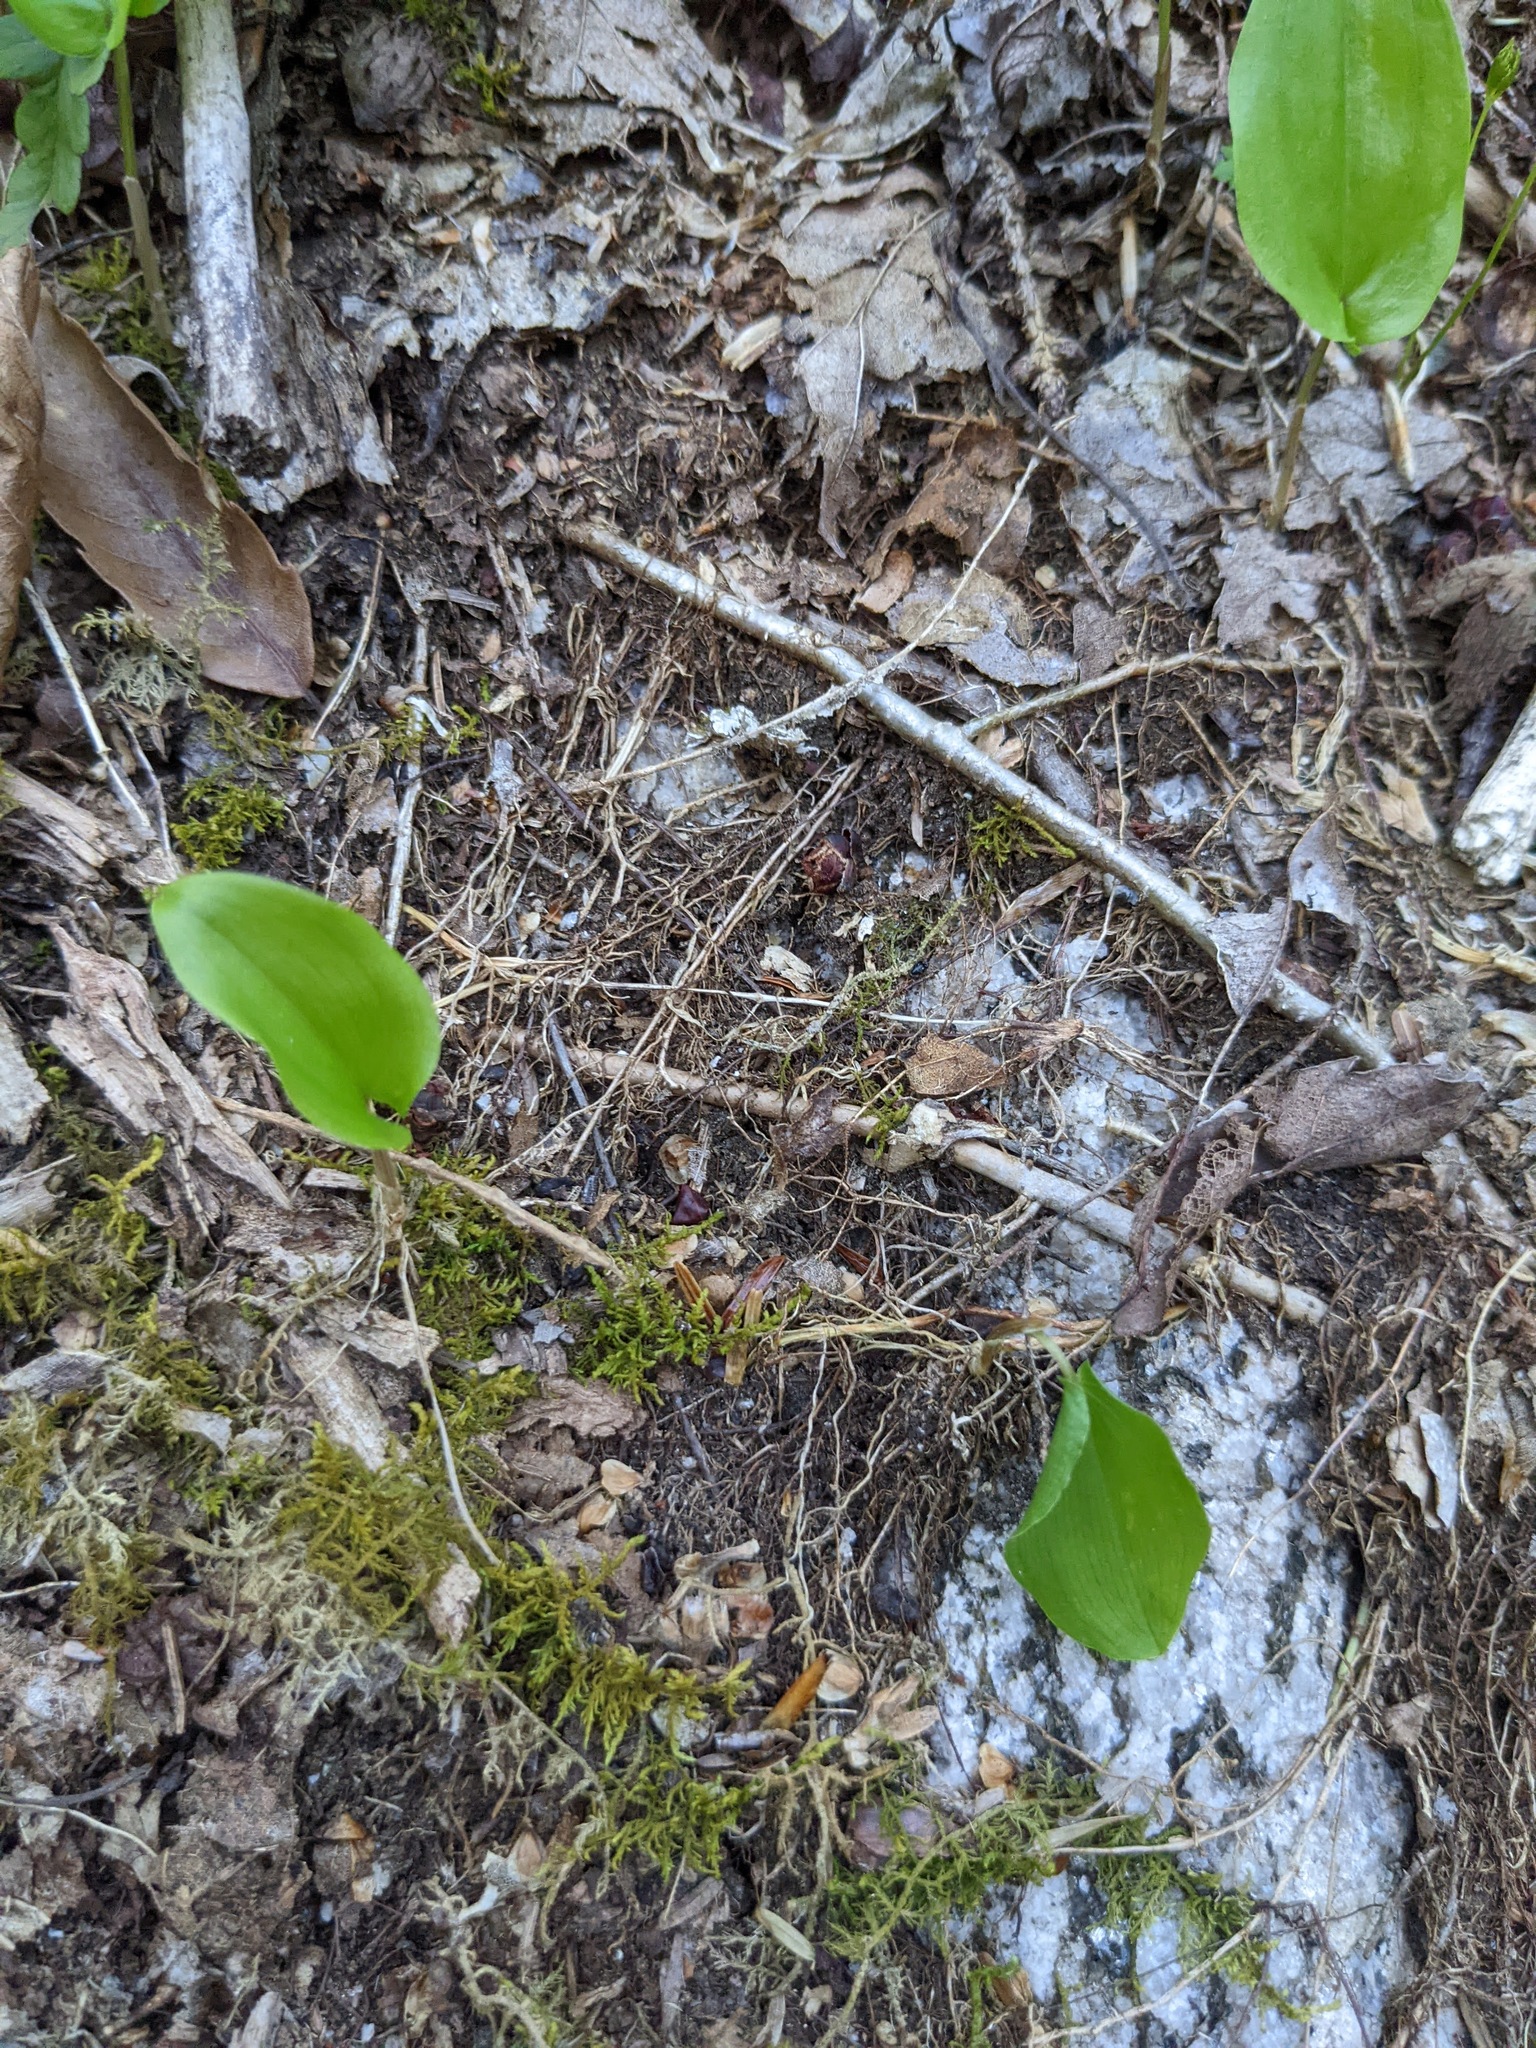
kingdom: Plantae
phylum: Tracheophyta
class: Liliopsida
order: Asparagales
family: Asparagaceae
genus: Maianthemum
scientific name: Maianthemum canadense
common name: False lily-of-the-valley
